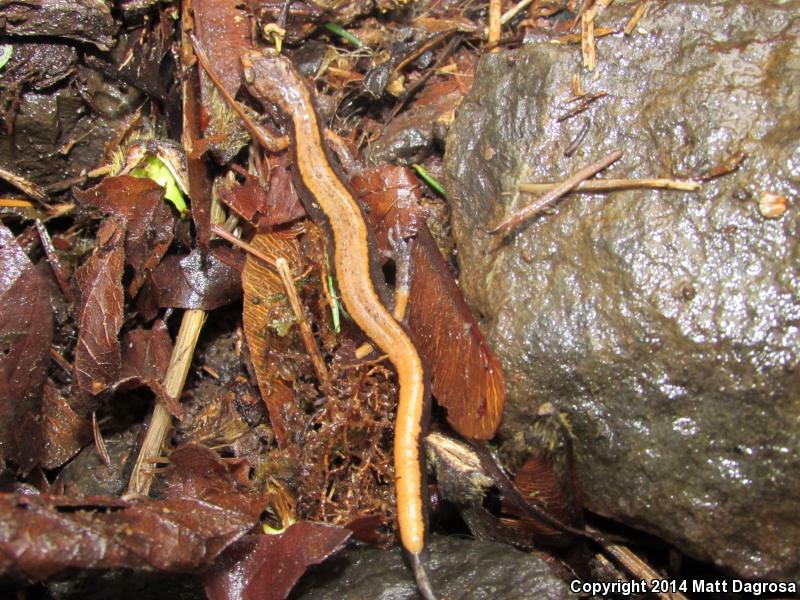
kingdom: Animalia
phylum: Chordata
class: Amphibia
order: Caudata
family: Plethodontidae
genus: Plethodon
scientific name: Plethodon vehiculum
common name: Western red-backed salamander
